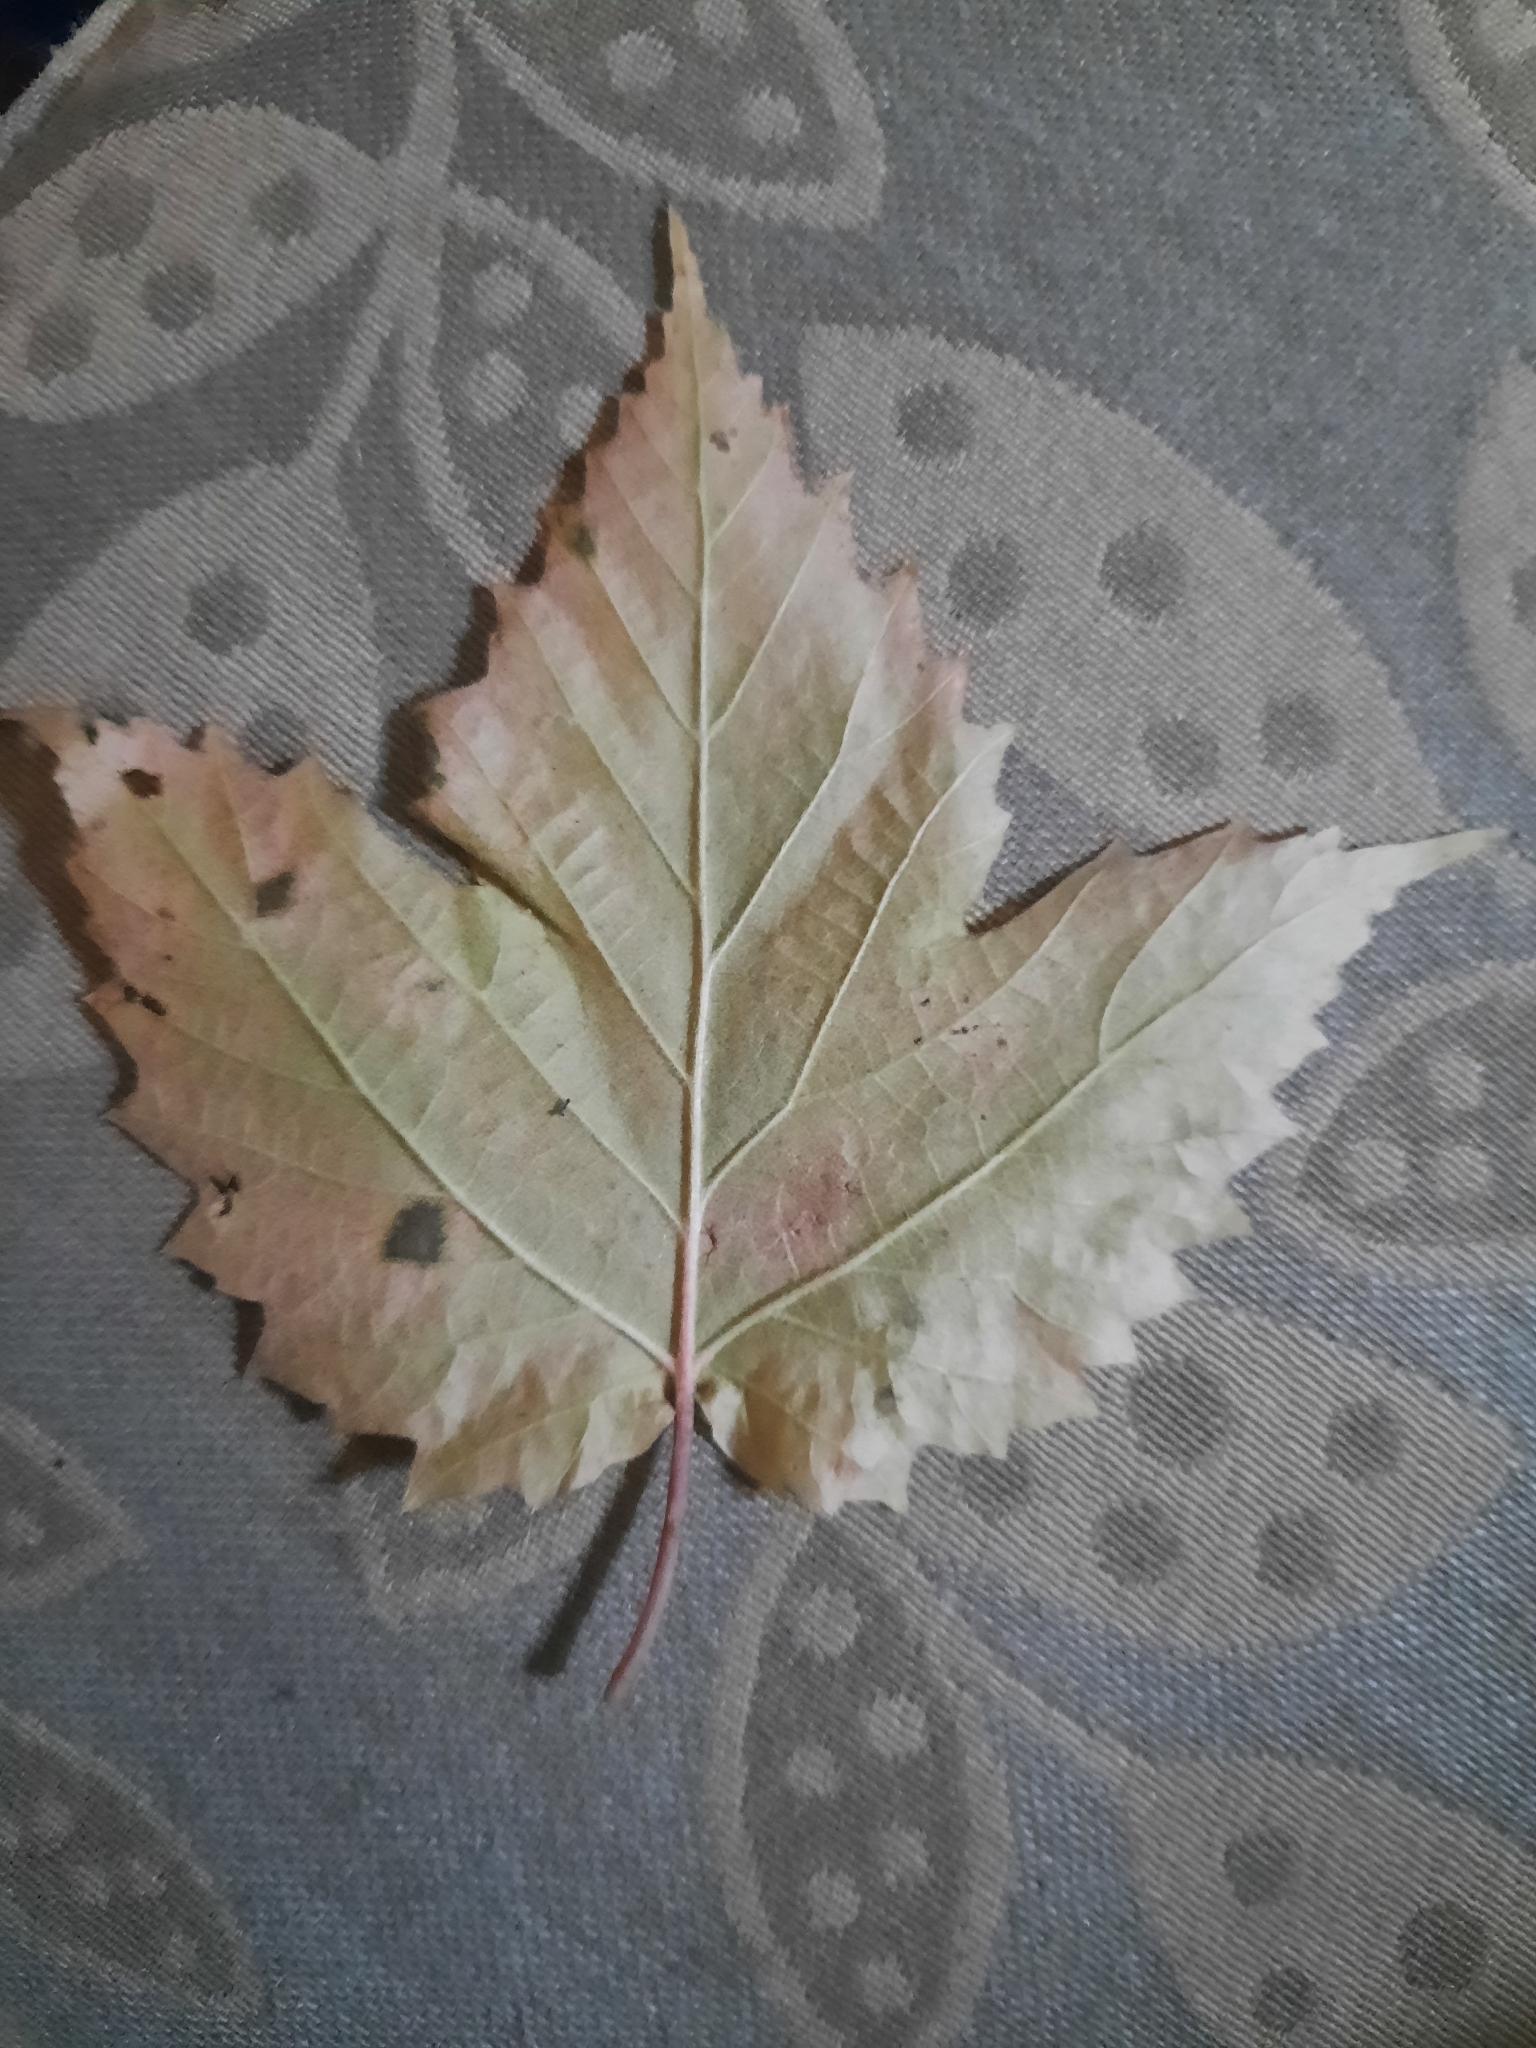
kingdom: Plantae
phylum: Tracheophyta
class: Magnoliopsida
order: Dipsacales
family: Viburnaceae
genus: Viburnum
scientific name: Viburnum acerifolium
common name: Dockmackie
